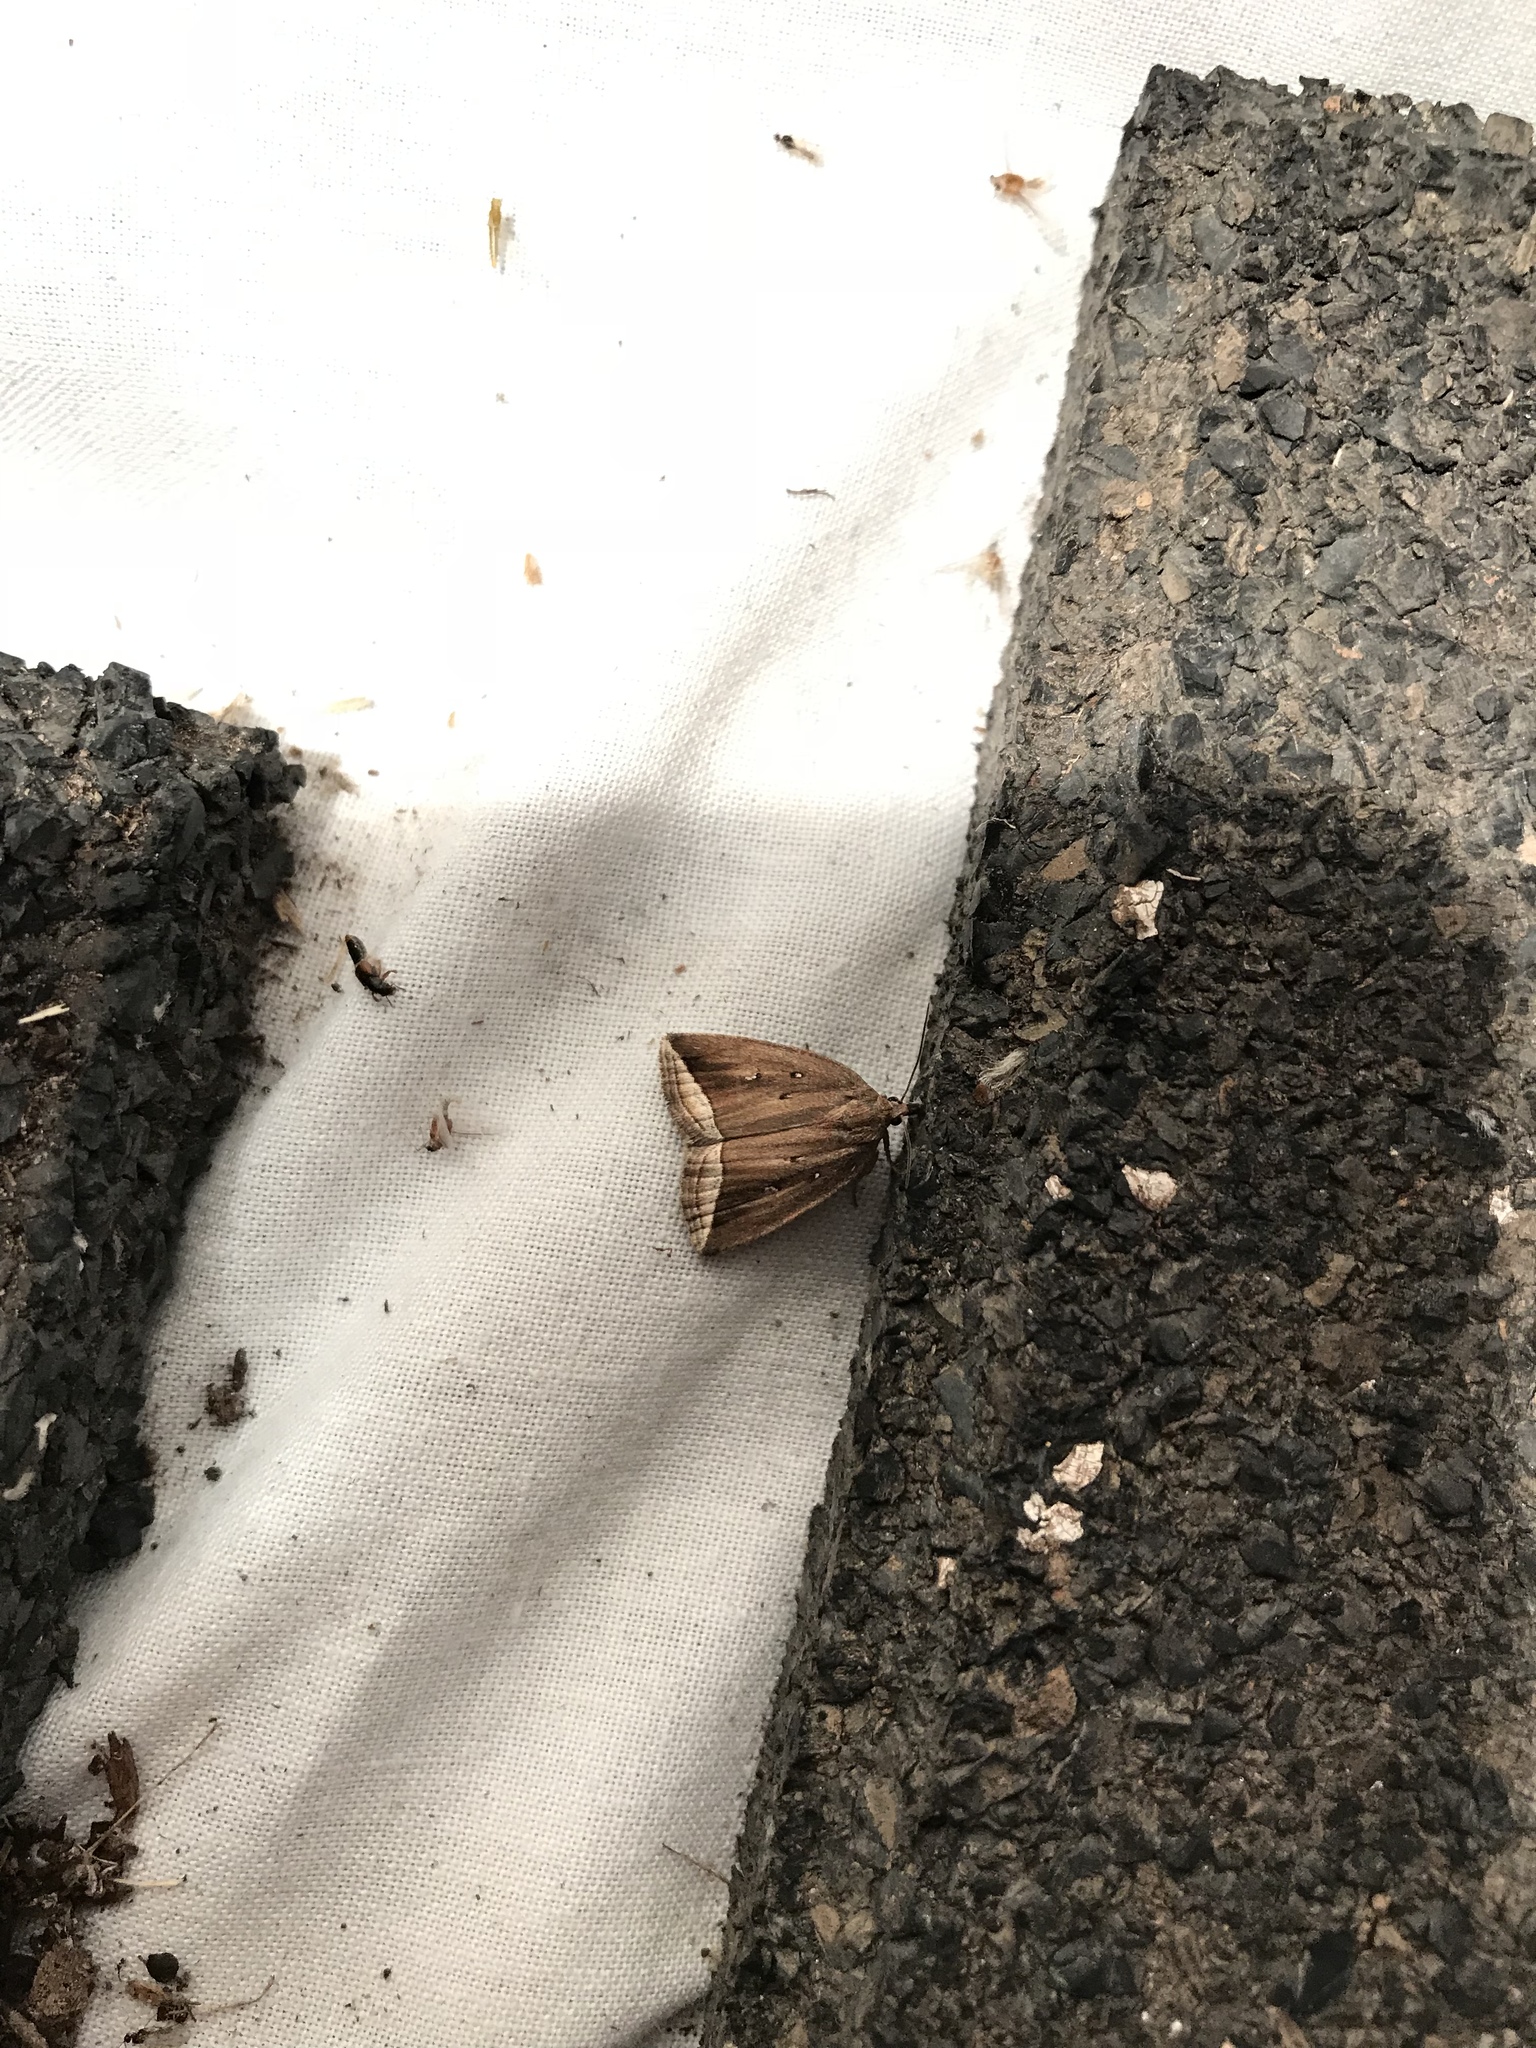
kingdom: Animalia
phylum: Arthropoda
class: Insecta
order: Lepidoptera
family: Erebidae
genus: Capis
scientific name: Capis curvata
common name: Curved halter moth
